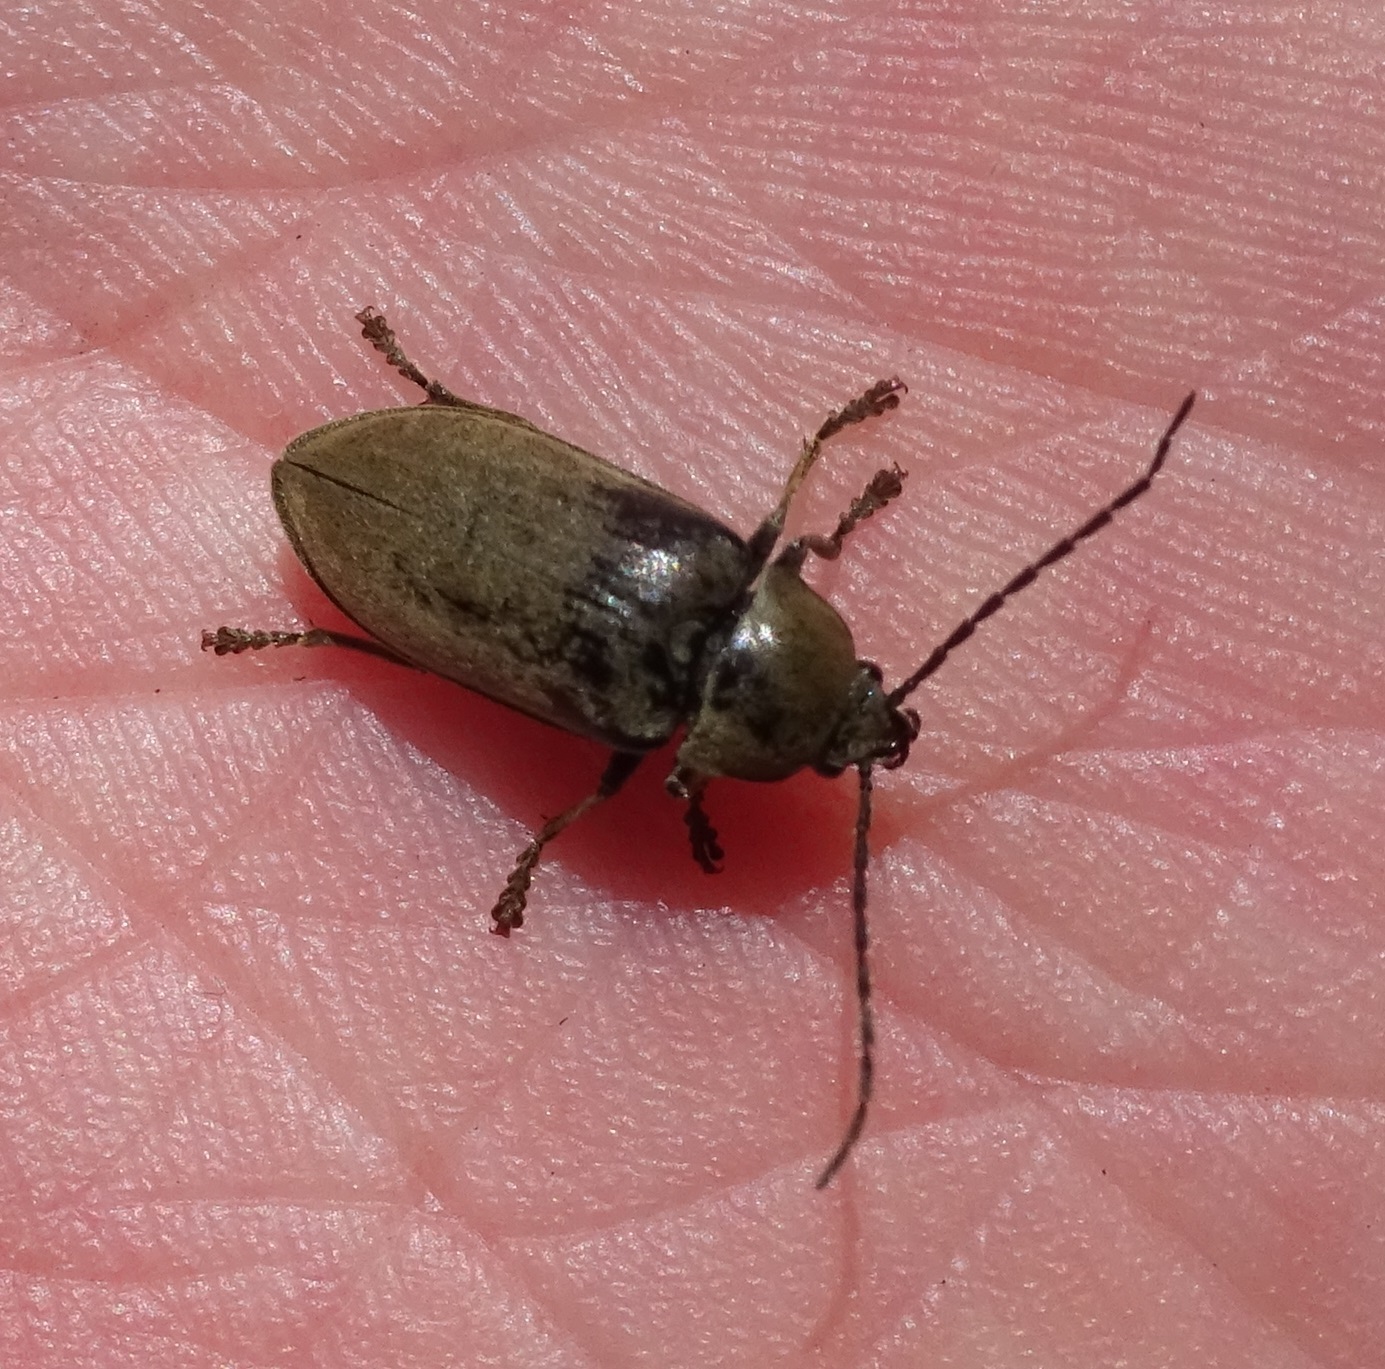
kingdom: Animalia
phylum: Arthropoda
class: Insecta
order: Coleoptera
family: Dascillidae
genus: Dascillus
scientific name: Dascillus cervinus
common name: Orchid beetle
